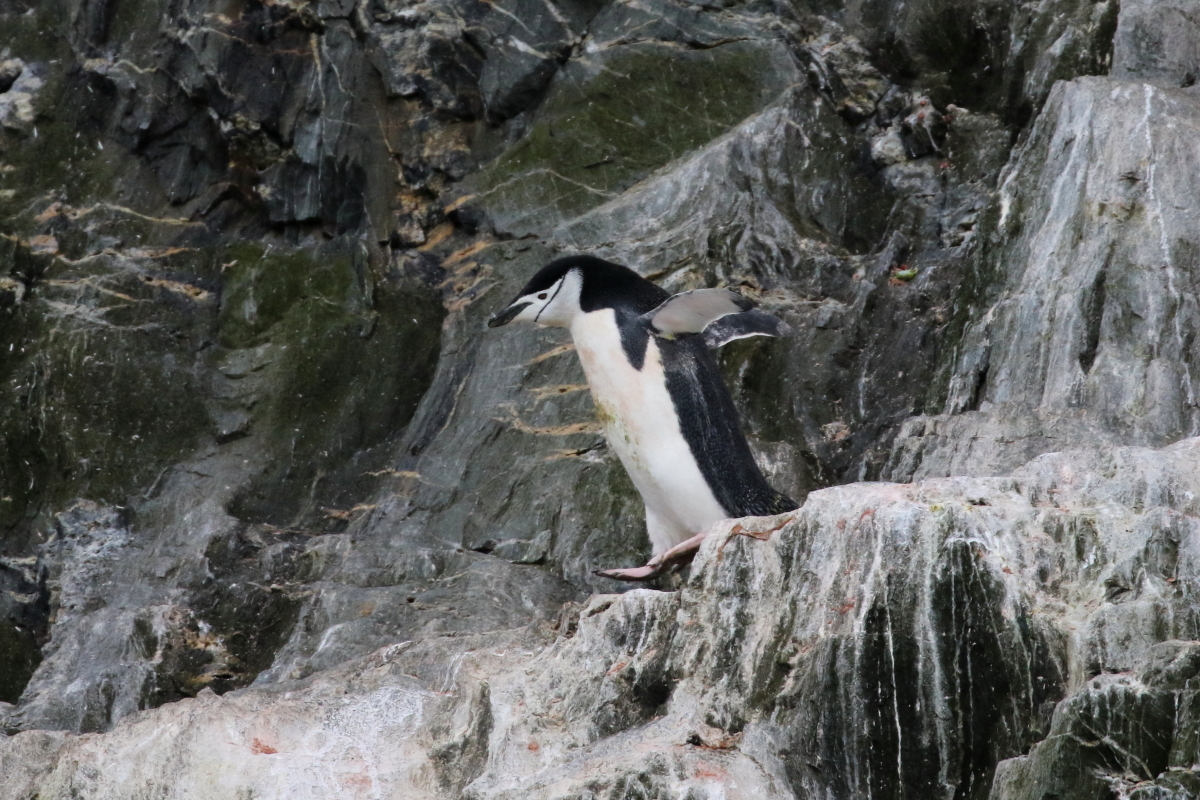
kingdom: Animalia
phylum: Chordata
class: Aves
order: Sphenisciformes
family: Spheniscidae
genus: Pygoscelis
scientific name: Pygoscelis antarcticus
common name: Chinstrap penguin
